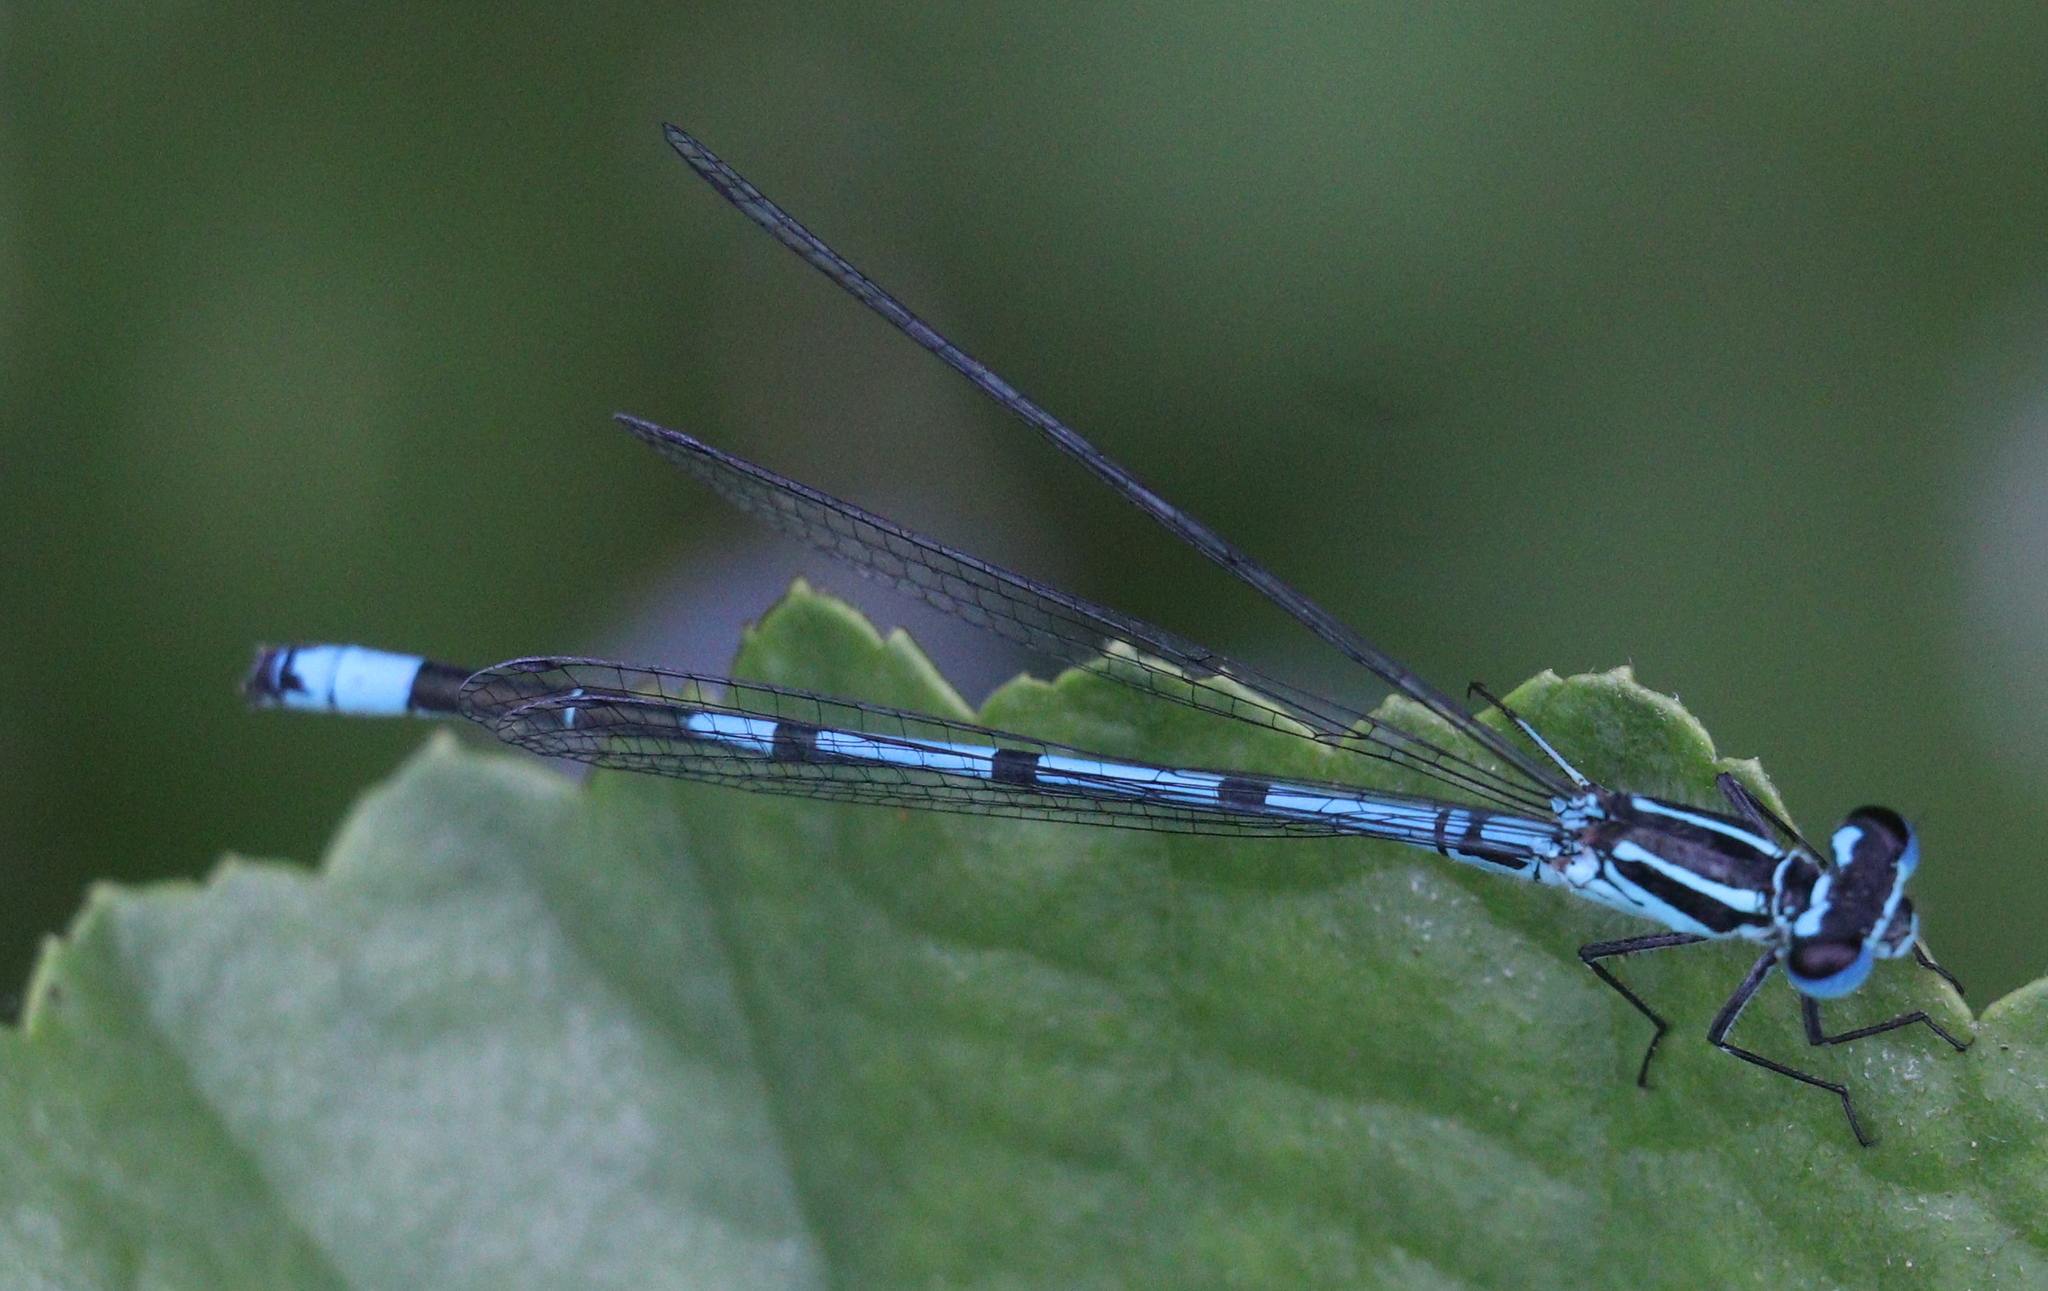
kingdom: Animalia
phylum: Arthropoda
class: Insecta
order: Odonata
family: Coenagrionidae
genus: Coenagrion
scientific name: Coenagrion puella
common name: Azure damselfly
